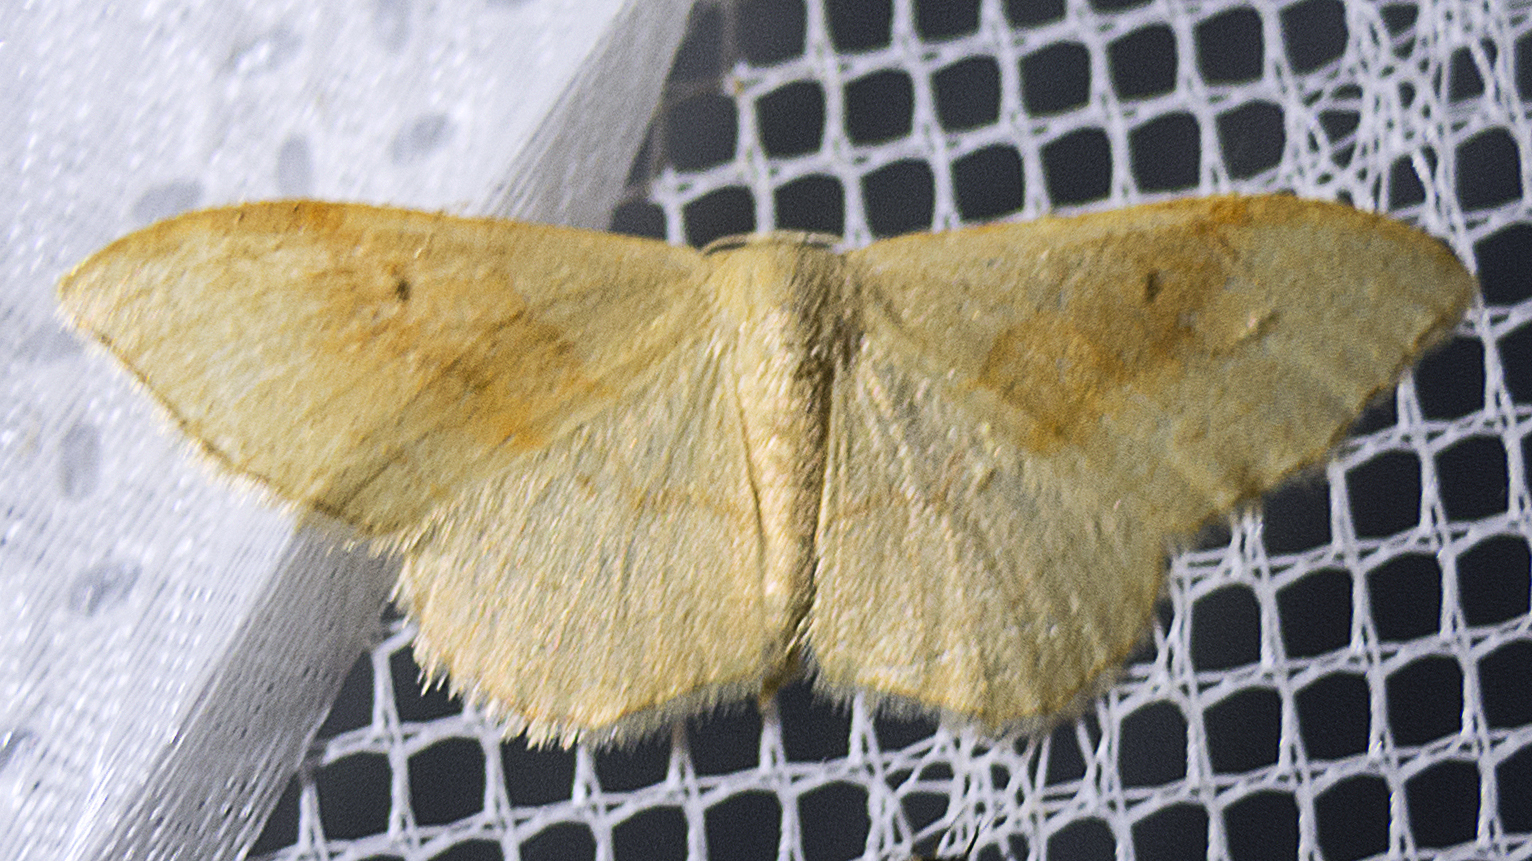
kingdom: Animalia
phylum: Arthropoda
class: Insecta
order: Lepidoptera
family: Geometridae
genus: Idaea
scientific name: Idaea bilinearia
